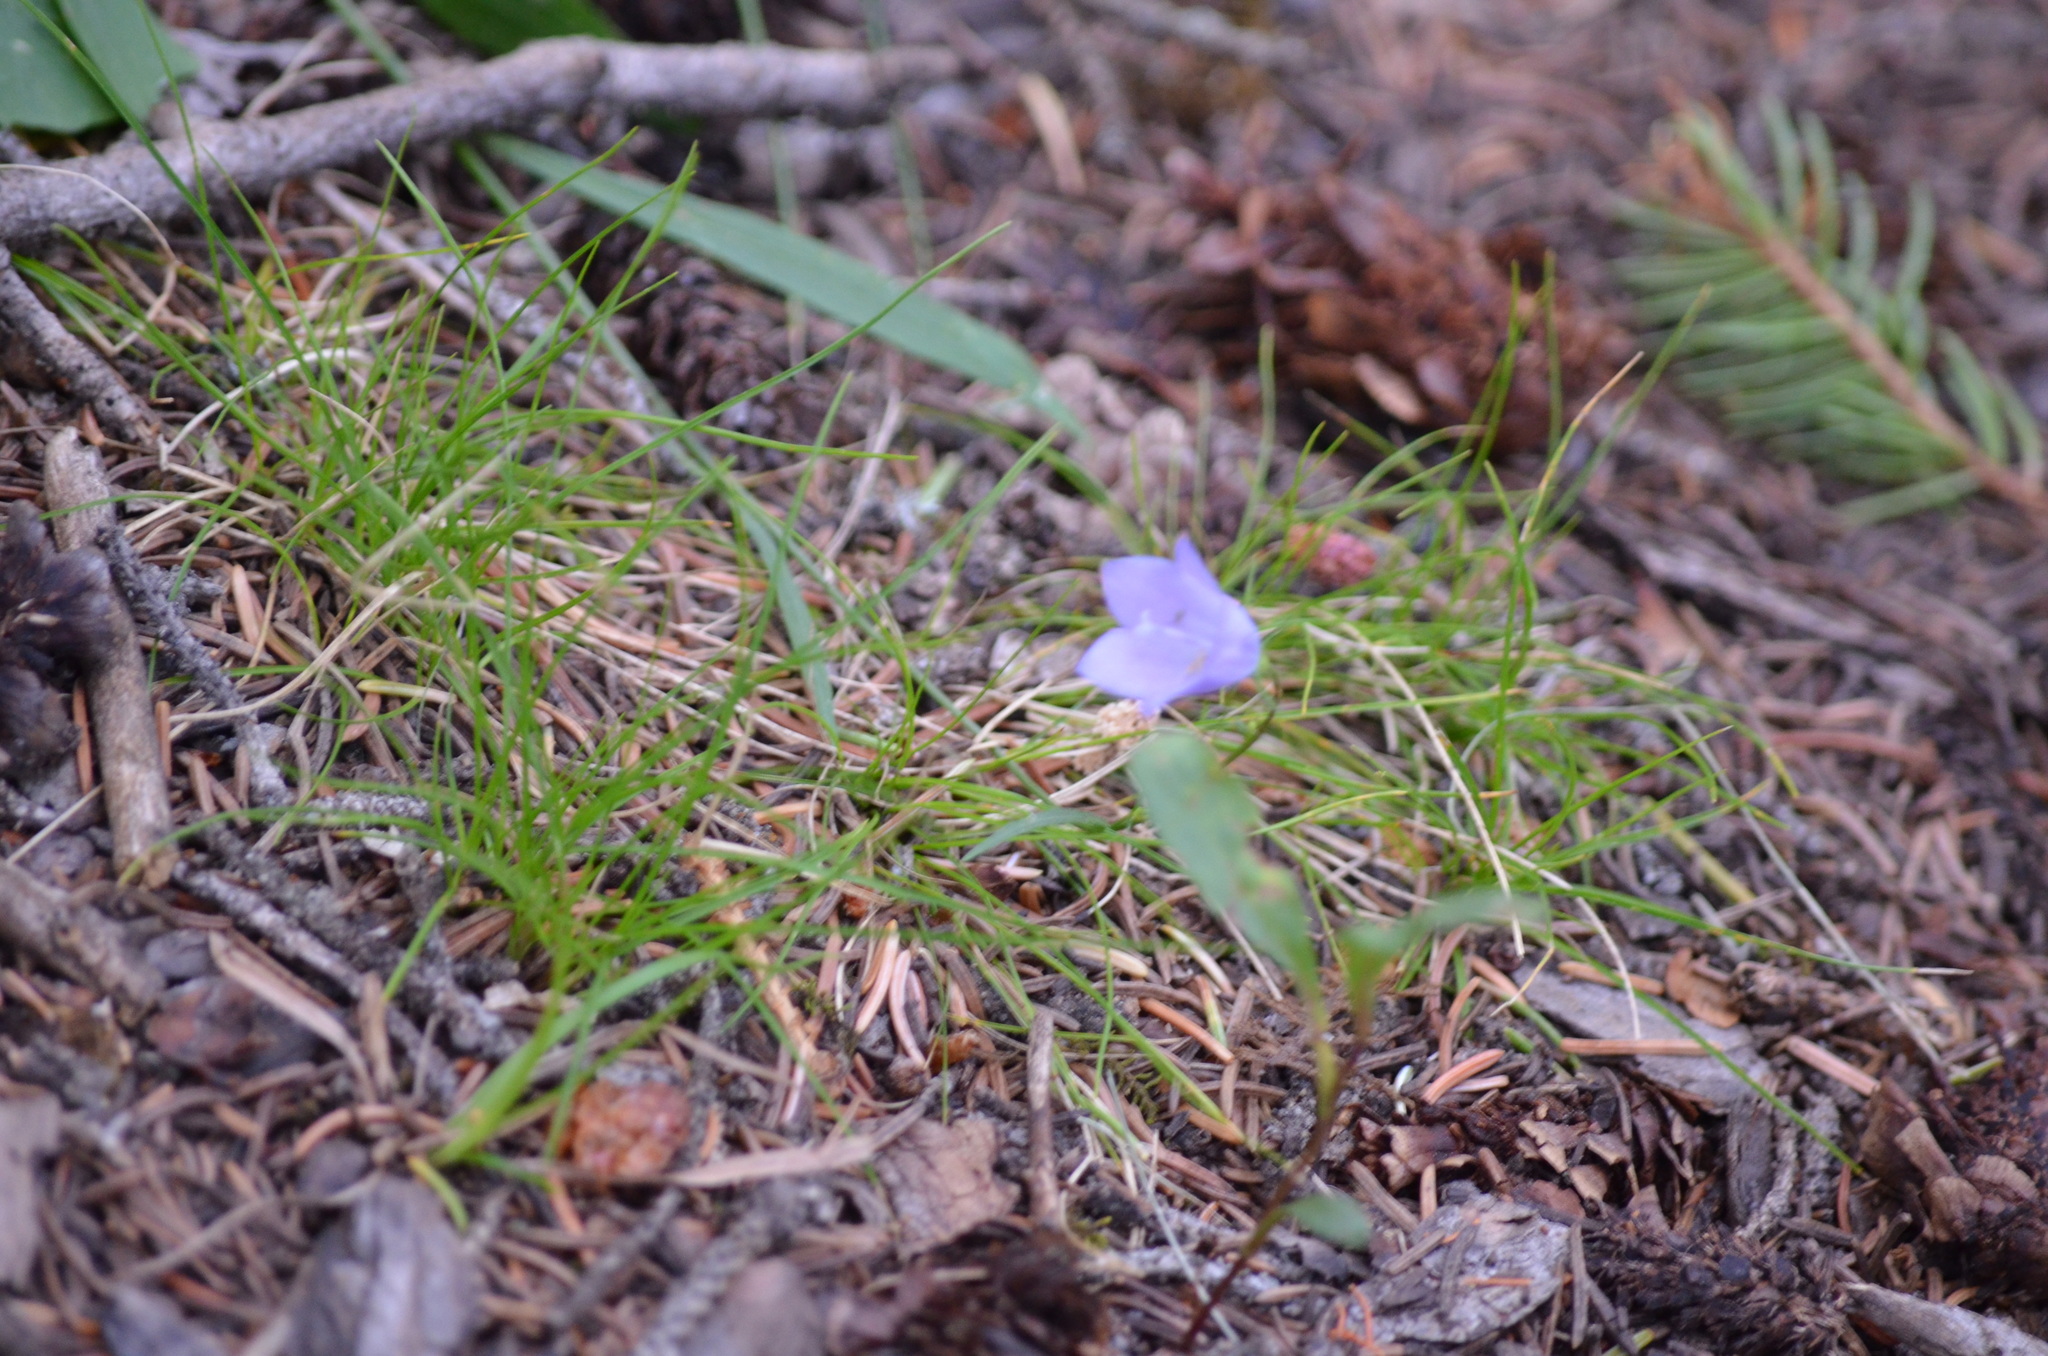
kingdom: Plantae
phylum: Tracheophyta
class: Magnoliopsida
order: Asterales
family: Campanulaceae
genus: Campanula
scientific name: Campanula alaskana
